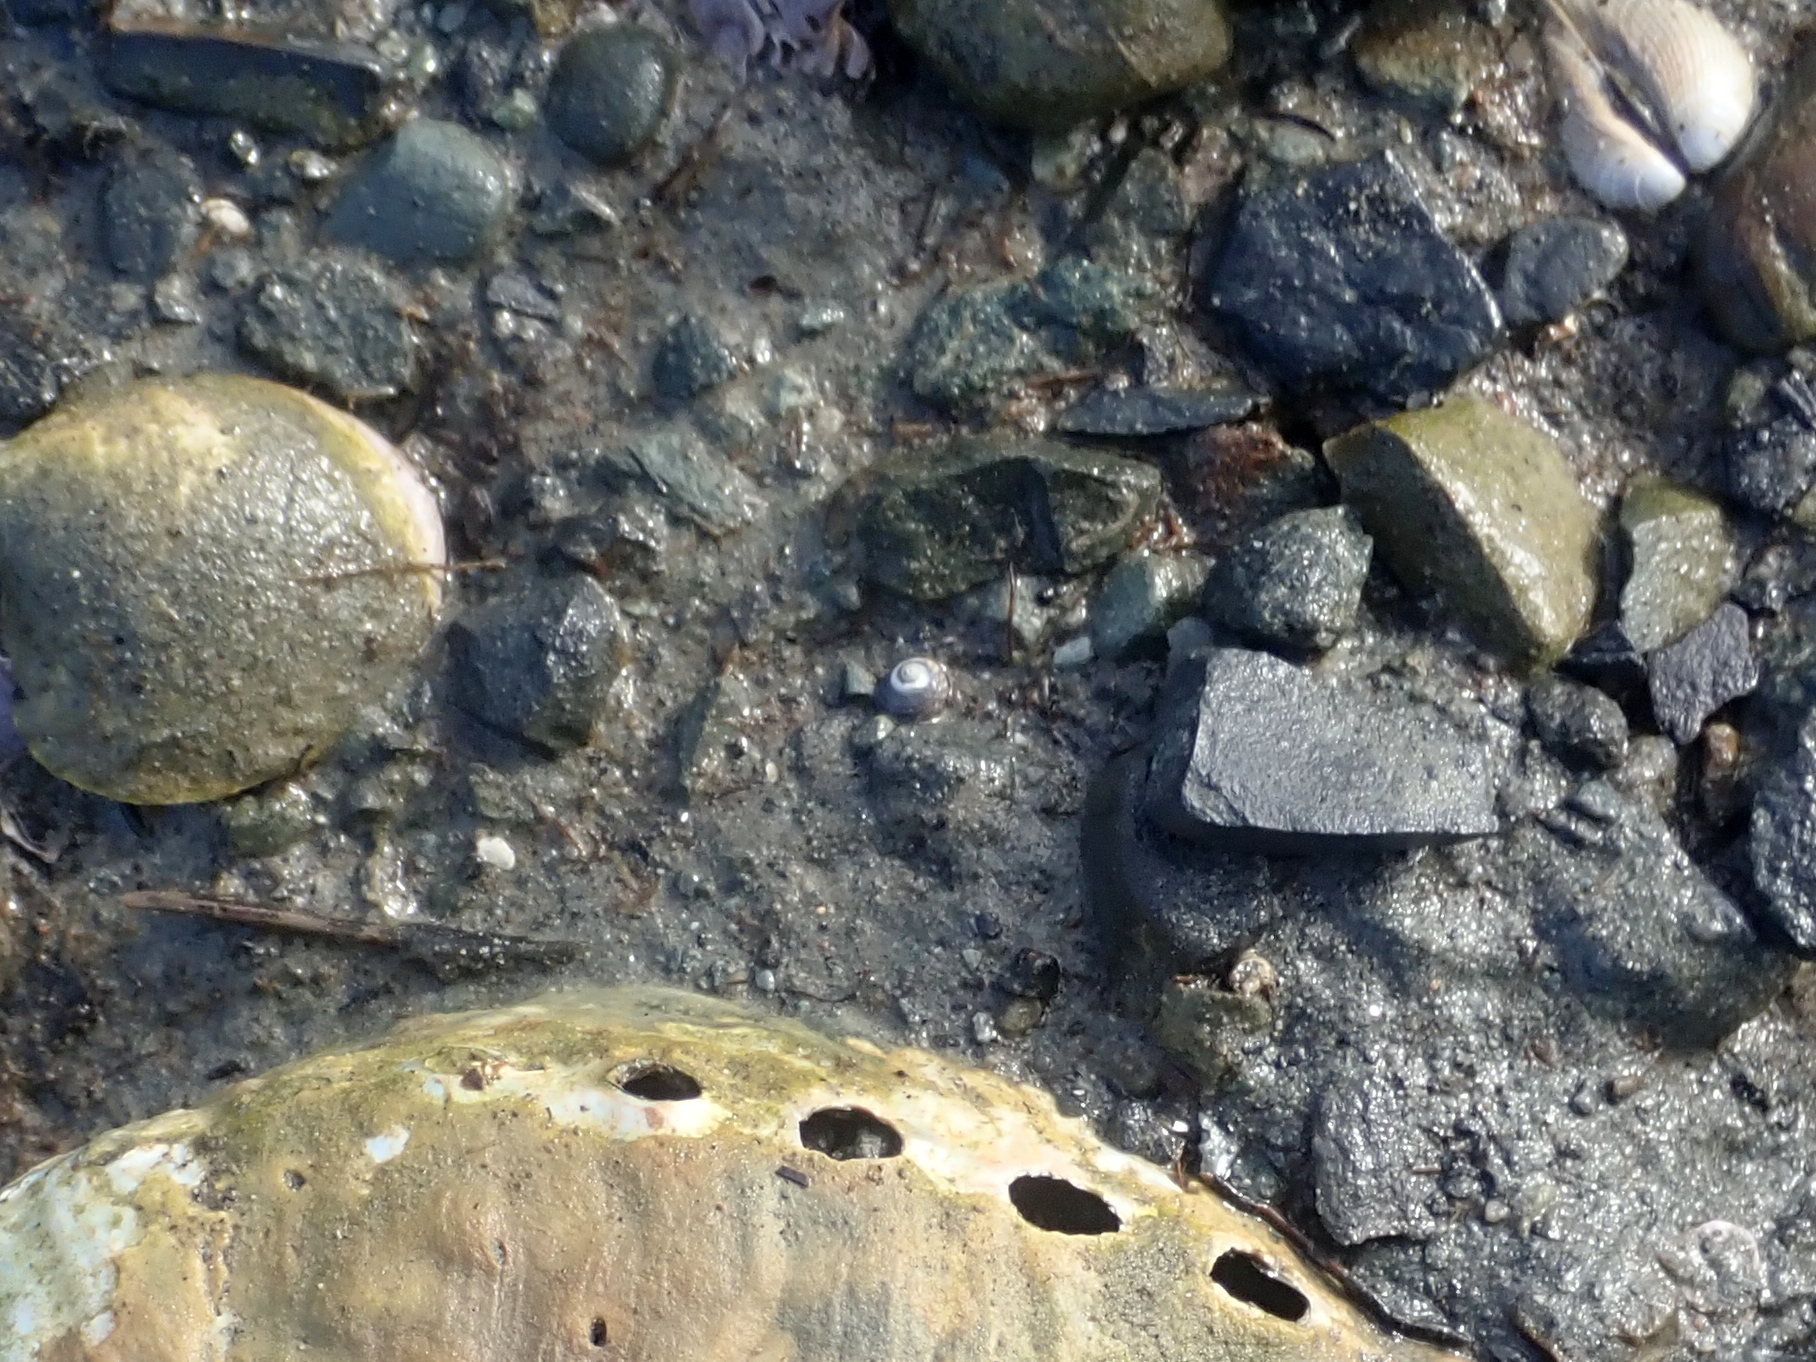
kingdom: Animalia
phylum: Mollusca
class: Gastropoda
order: Trochida
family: Trochidae
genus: Diloma
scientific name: Diloma subrostratum
